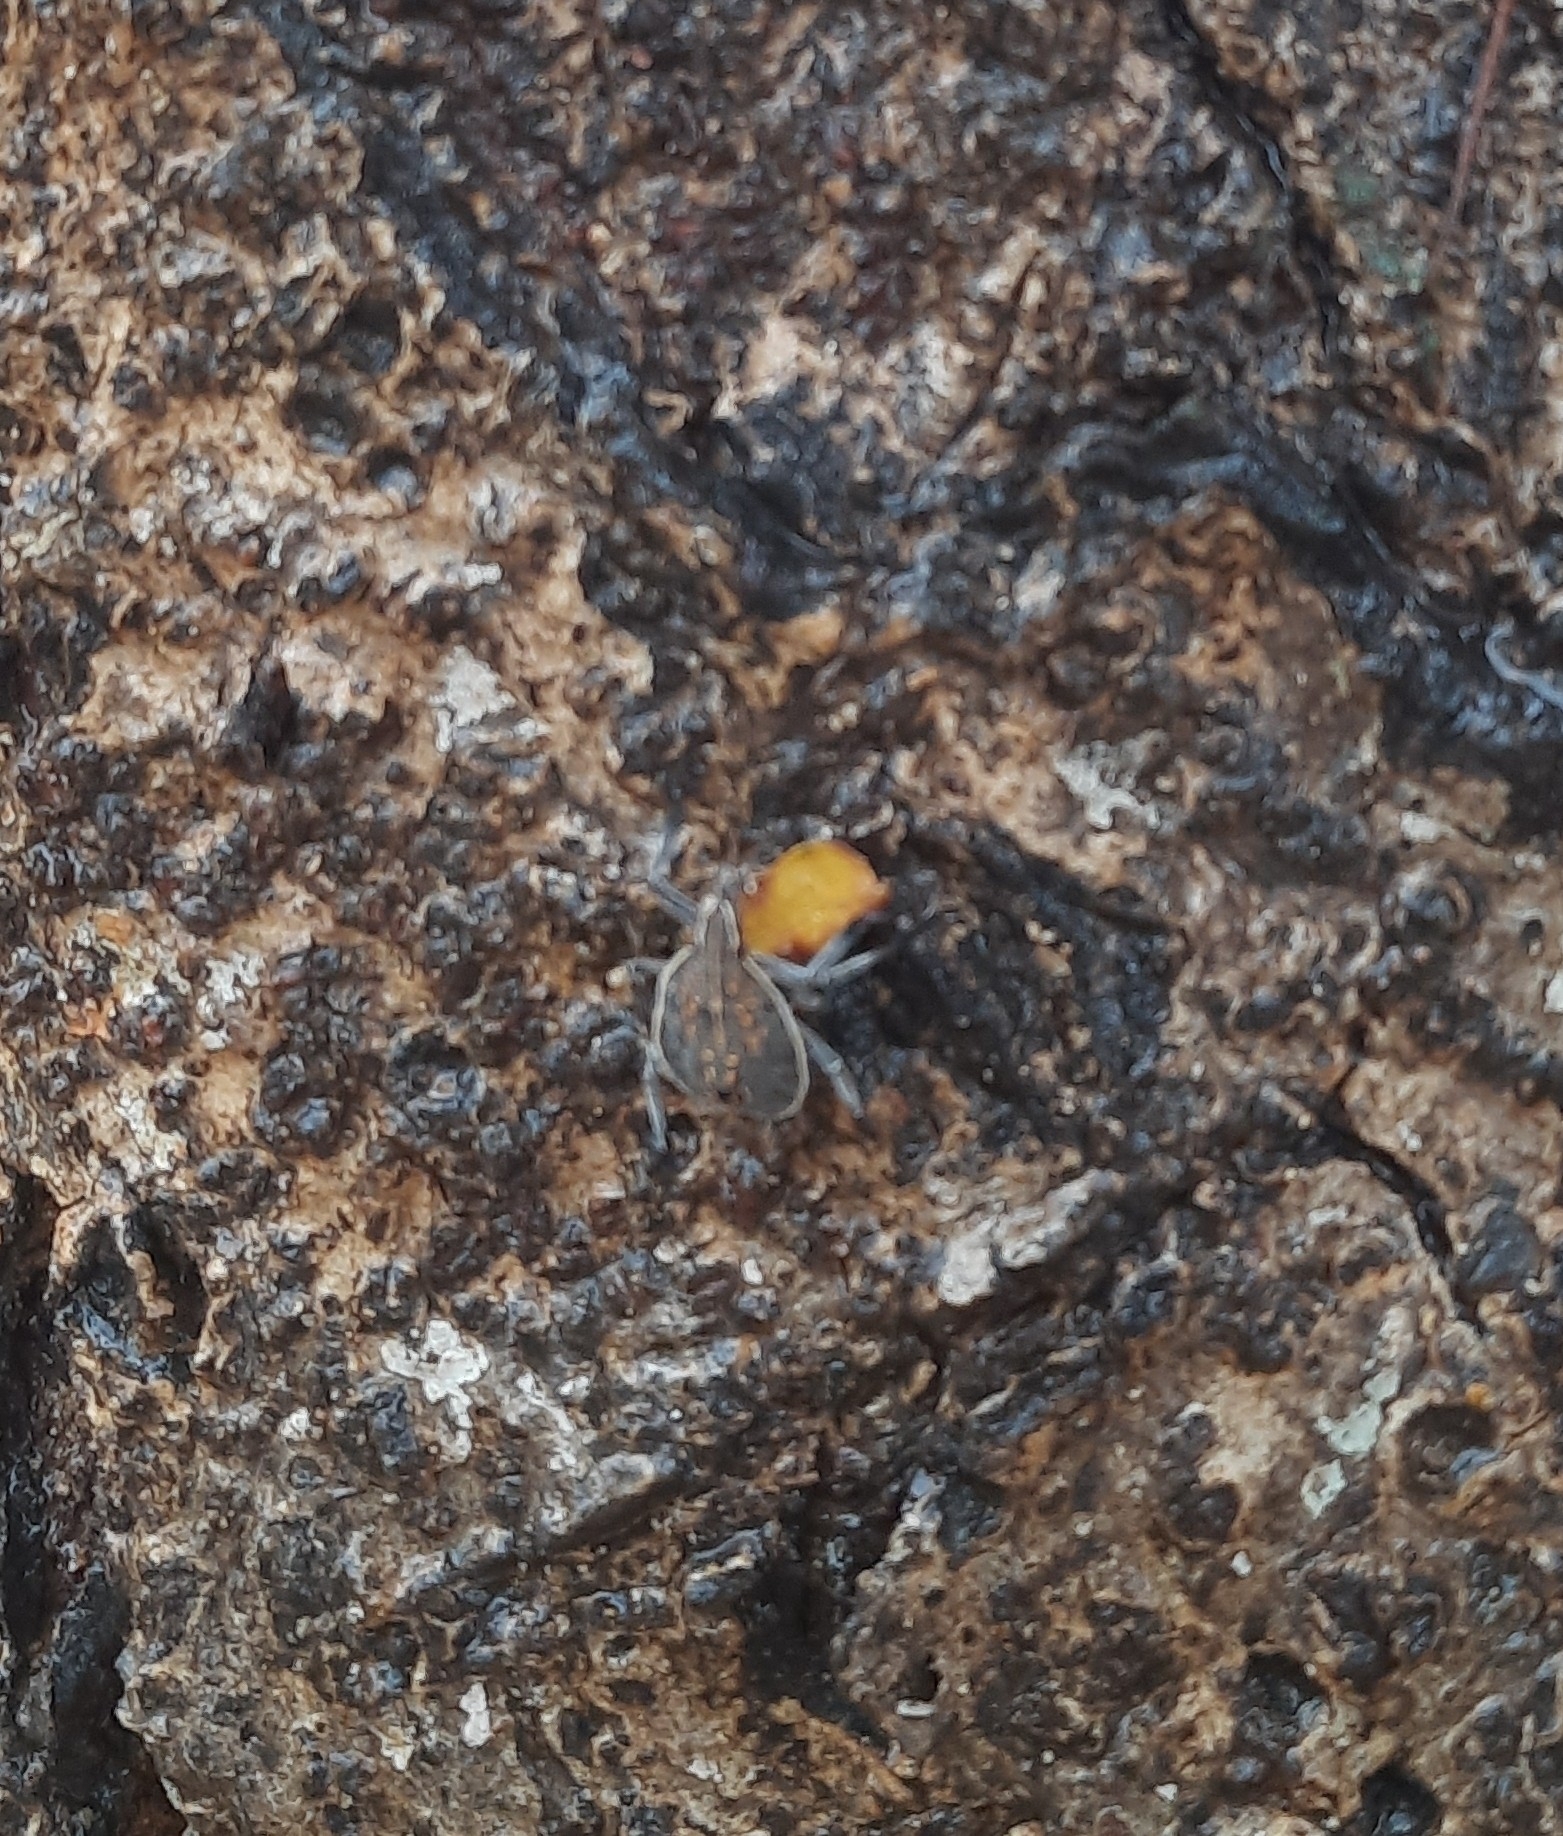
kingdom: Animalia
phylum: Arthropoda
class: Insecta
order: Hemiptera
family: Pentatomidae
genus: Erthesina
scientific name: Erthesina acuminata
